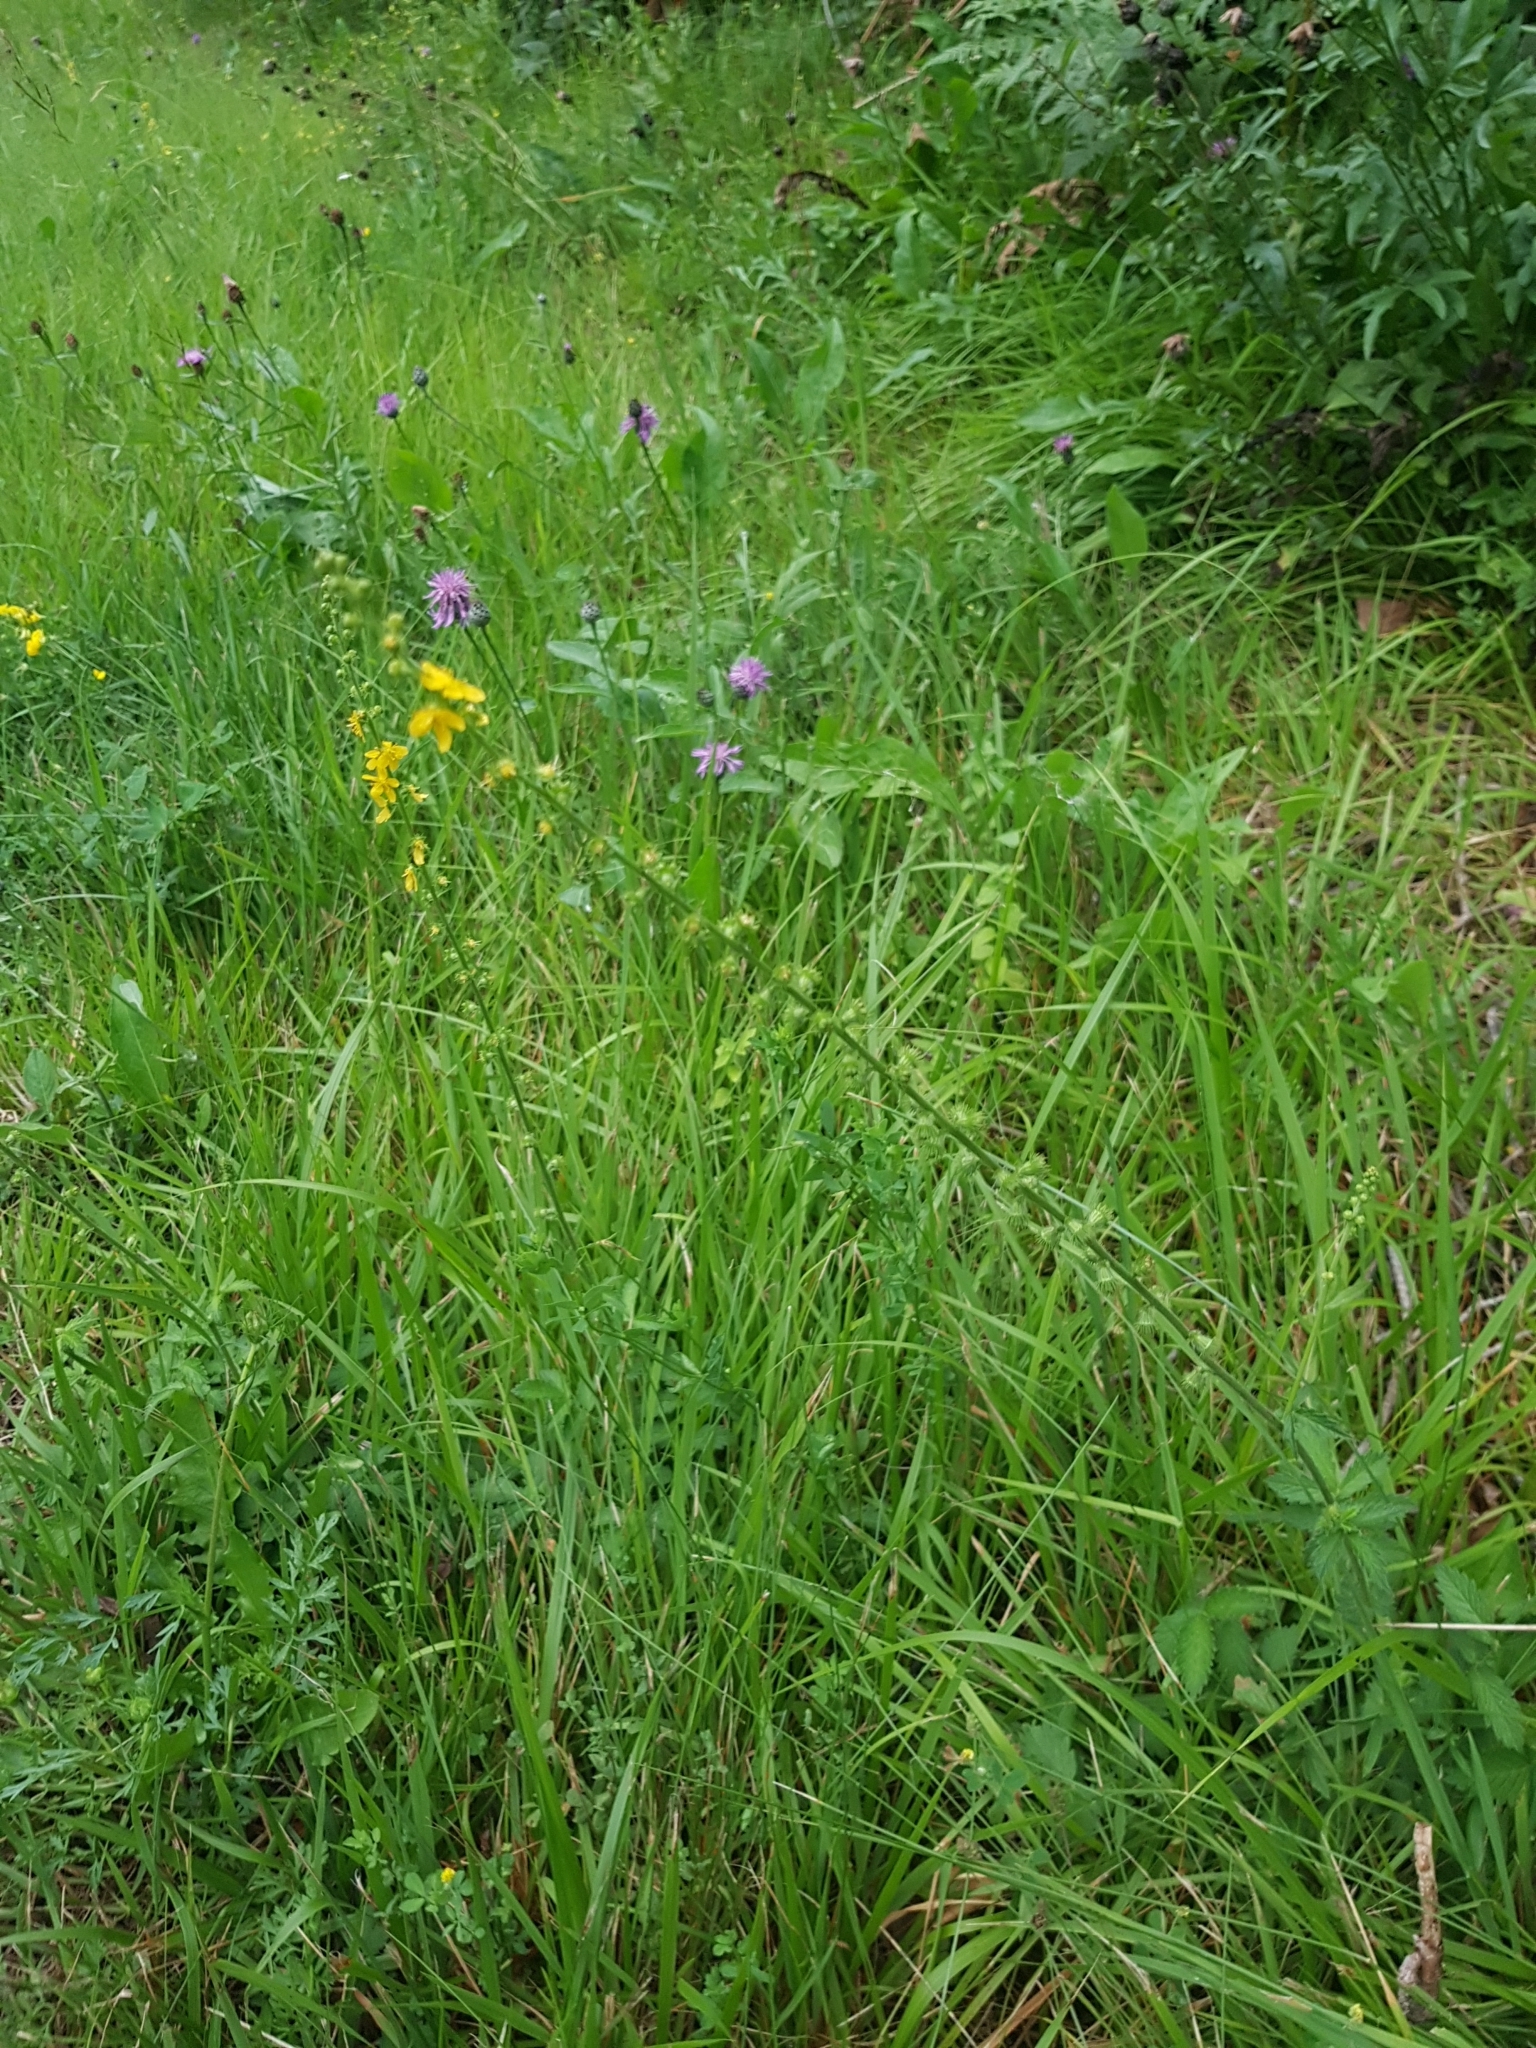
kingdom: Plantae
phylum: Tracheophyta
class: Magnoliopsida
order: Rosales
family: Rosaceae
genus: Agrimonia
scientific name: Agrimonia eupatoria
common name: Agrimony
